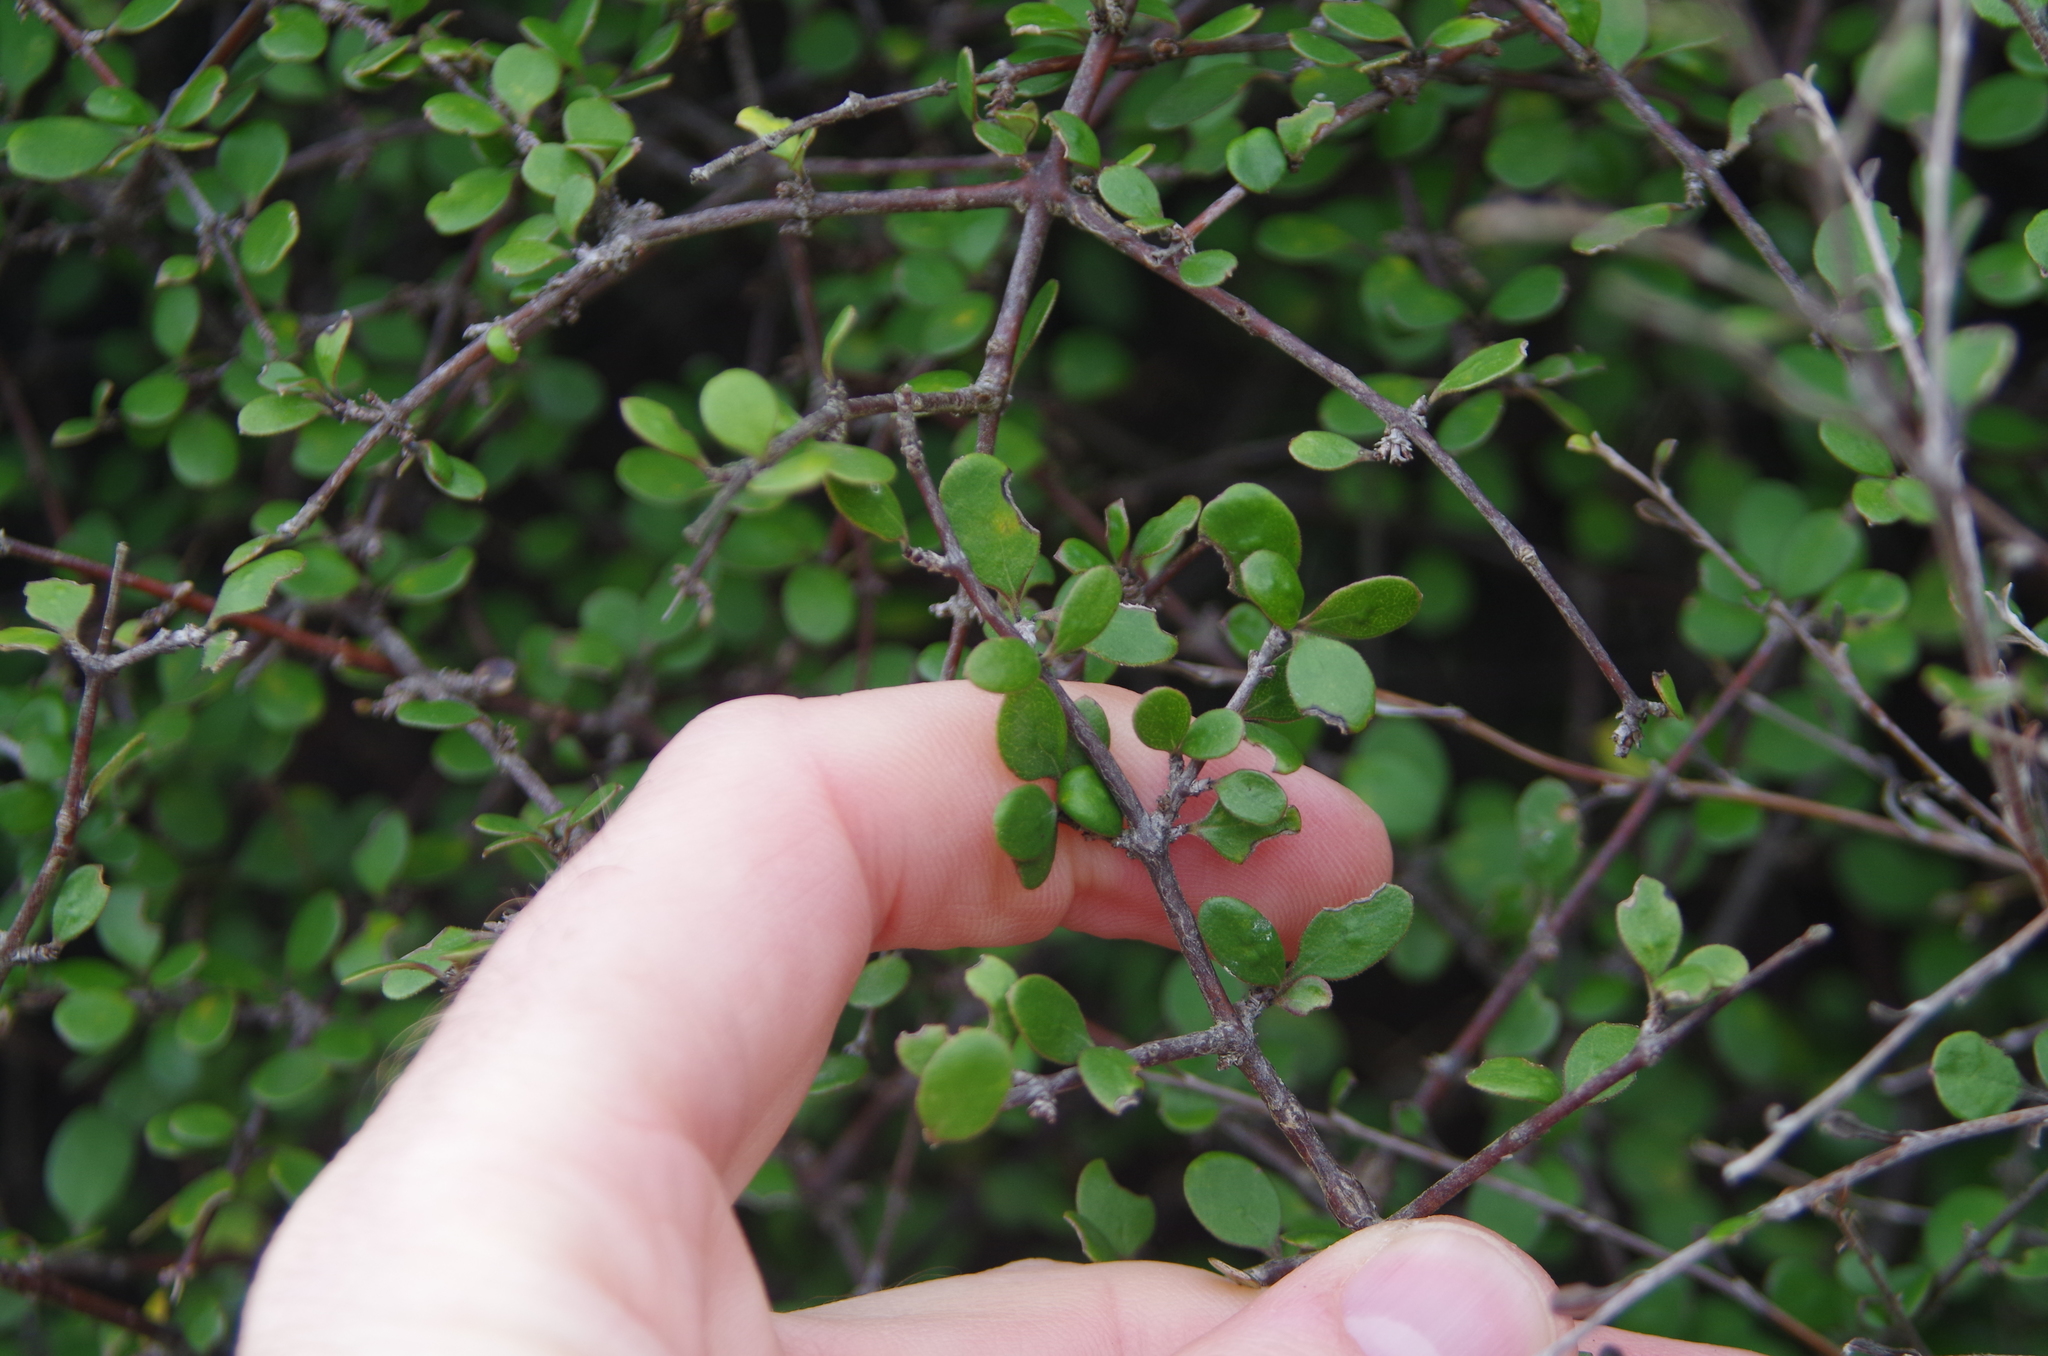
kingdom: Plantae
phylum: Tracheophyta
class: Magnoliopsida
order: Gentianales
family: Rubiaceae
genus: Coprosma
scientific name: Coprosma crassifolia
